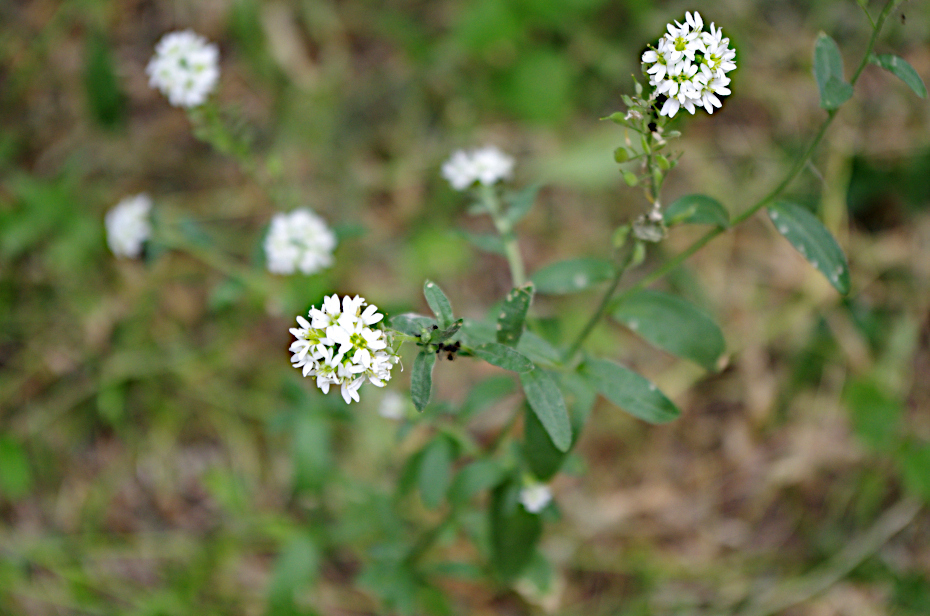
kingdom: Plantae
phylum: Tracheophyta
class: Magnoliopsida
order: Brassicales
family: Brassicaceae
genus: Berteroa
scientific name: Berteroa incana
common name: Hoary alison
